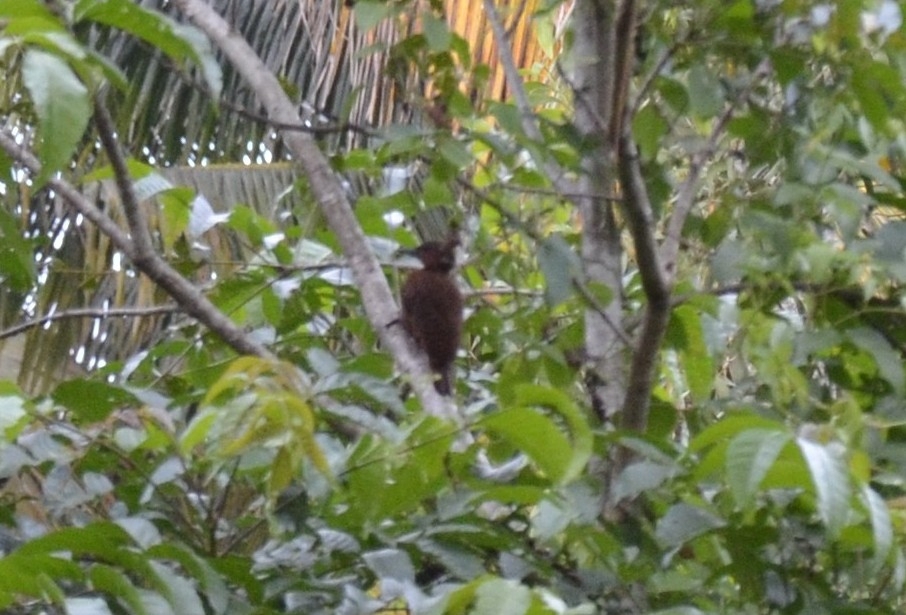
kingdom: Animalia
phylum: Chordata
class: Aves
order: Piciformes
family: Picidae
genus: Micropternus
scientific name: Micropternus brachyurus
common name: Rufous woodpecker
